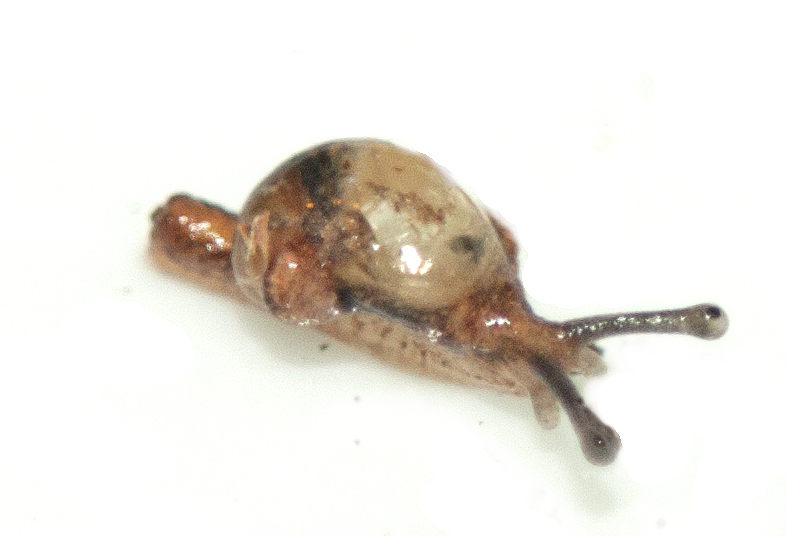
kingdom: Animalia
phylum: Mollusca
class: Gastropoda
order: Stylommatophora
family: Helicarionidae
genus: Ubiquitarion
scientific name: Ubiquitarion iridis
